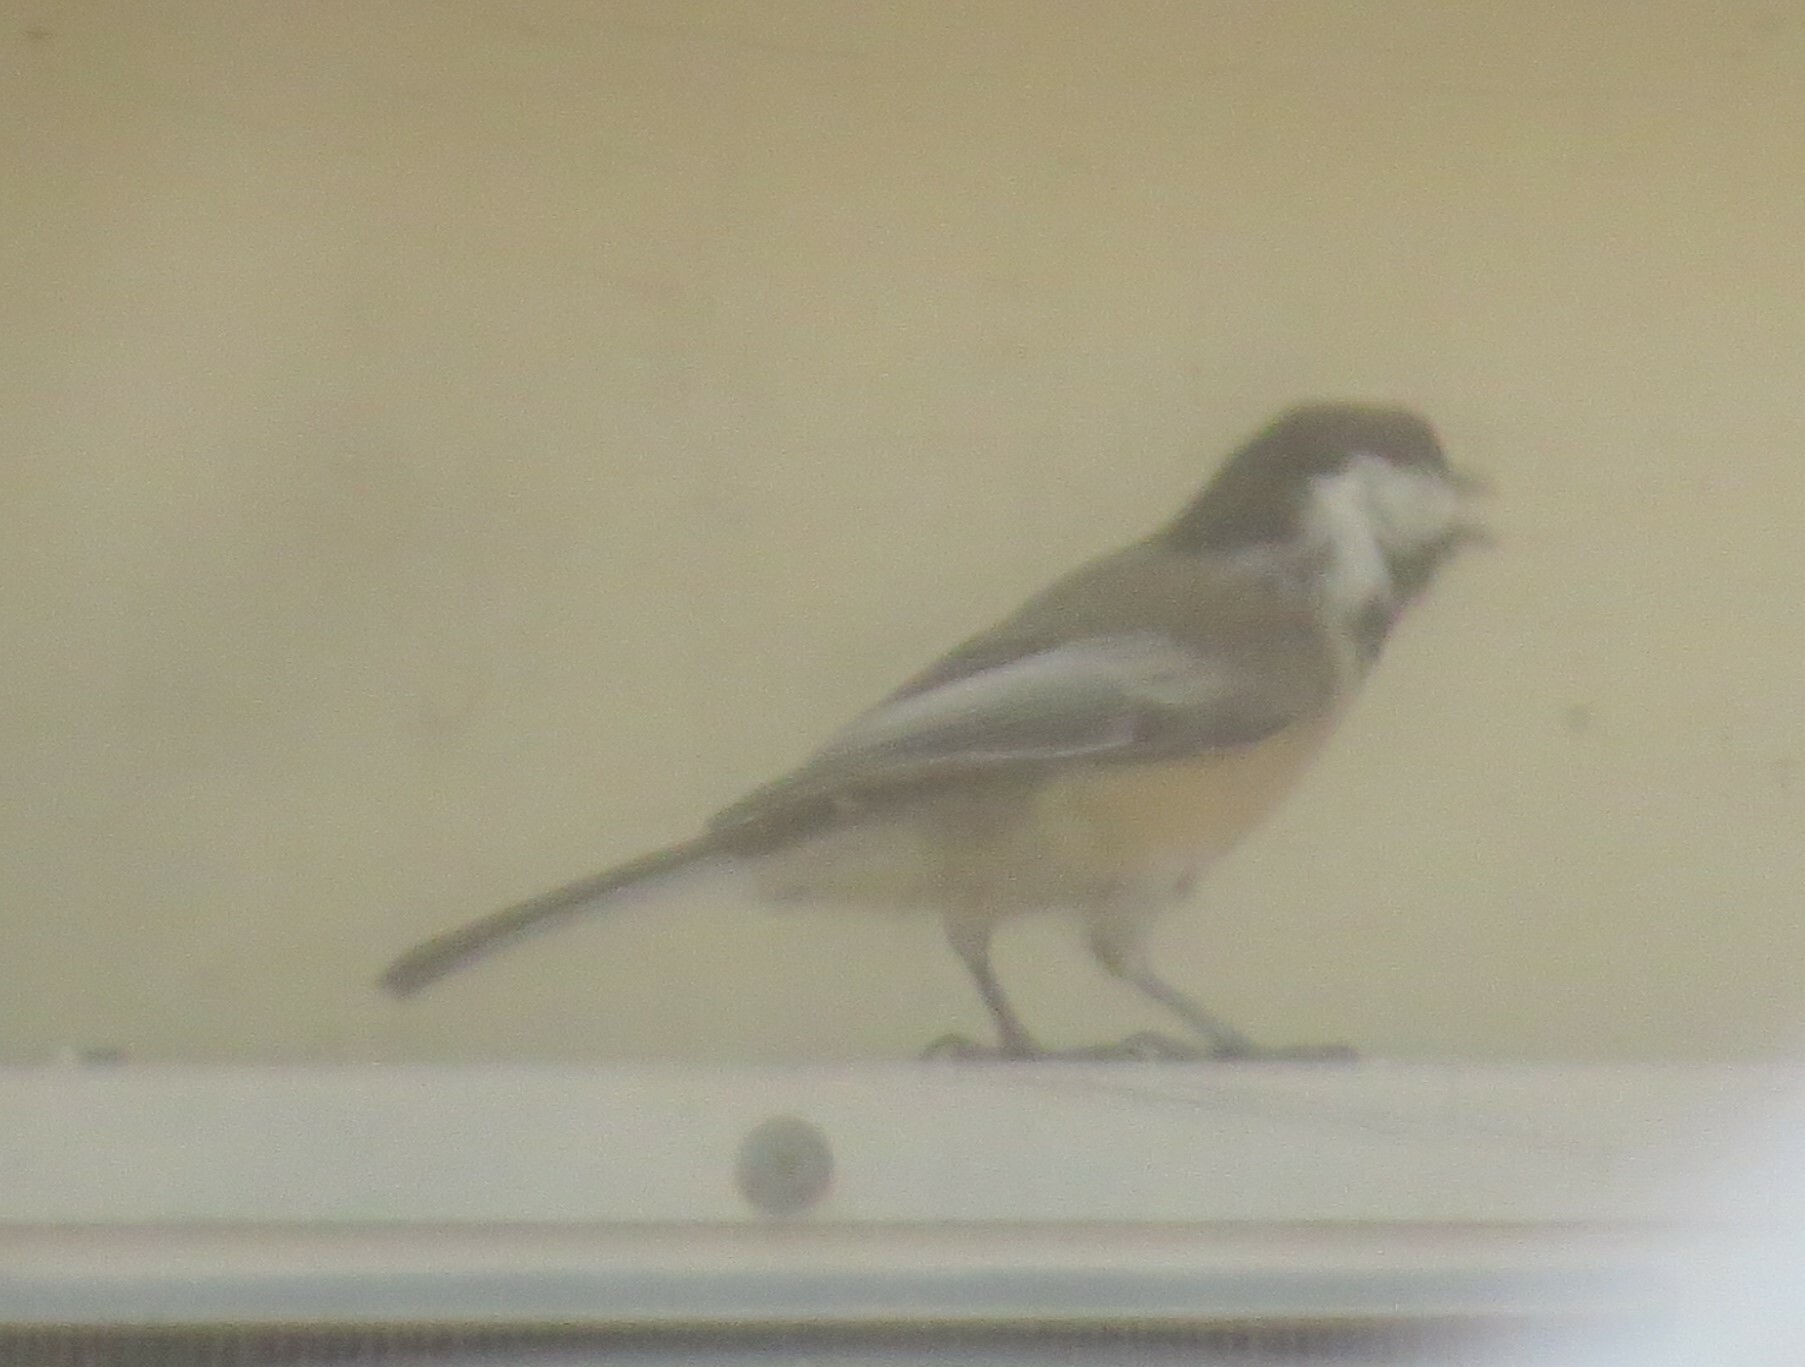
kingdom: Animalia
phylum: Chordata
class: Aves
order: Passeriformes
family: Paridae
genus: Poecile
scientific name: Poecile atricapillus
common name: Black-capped chickadee
